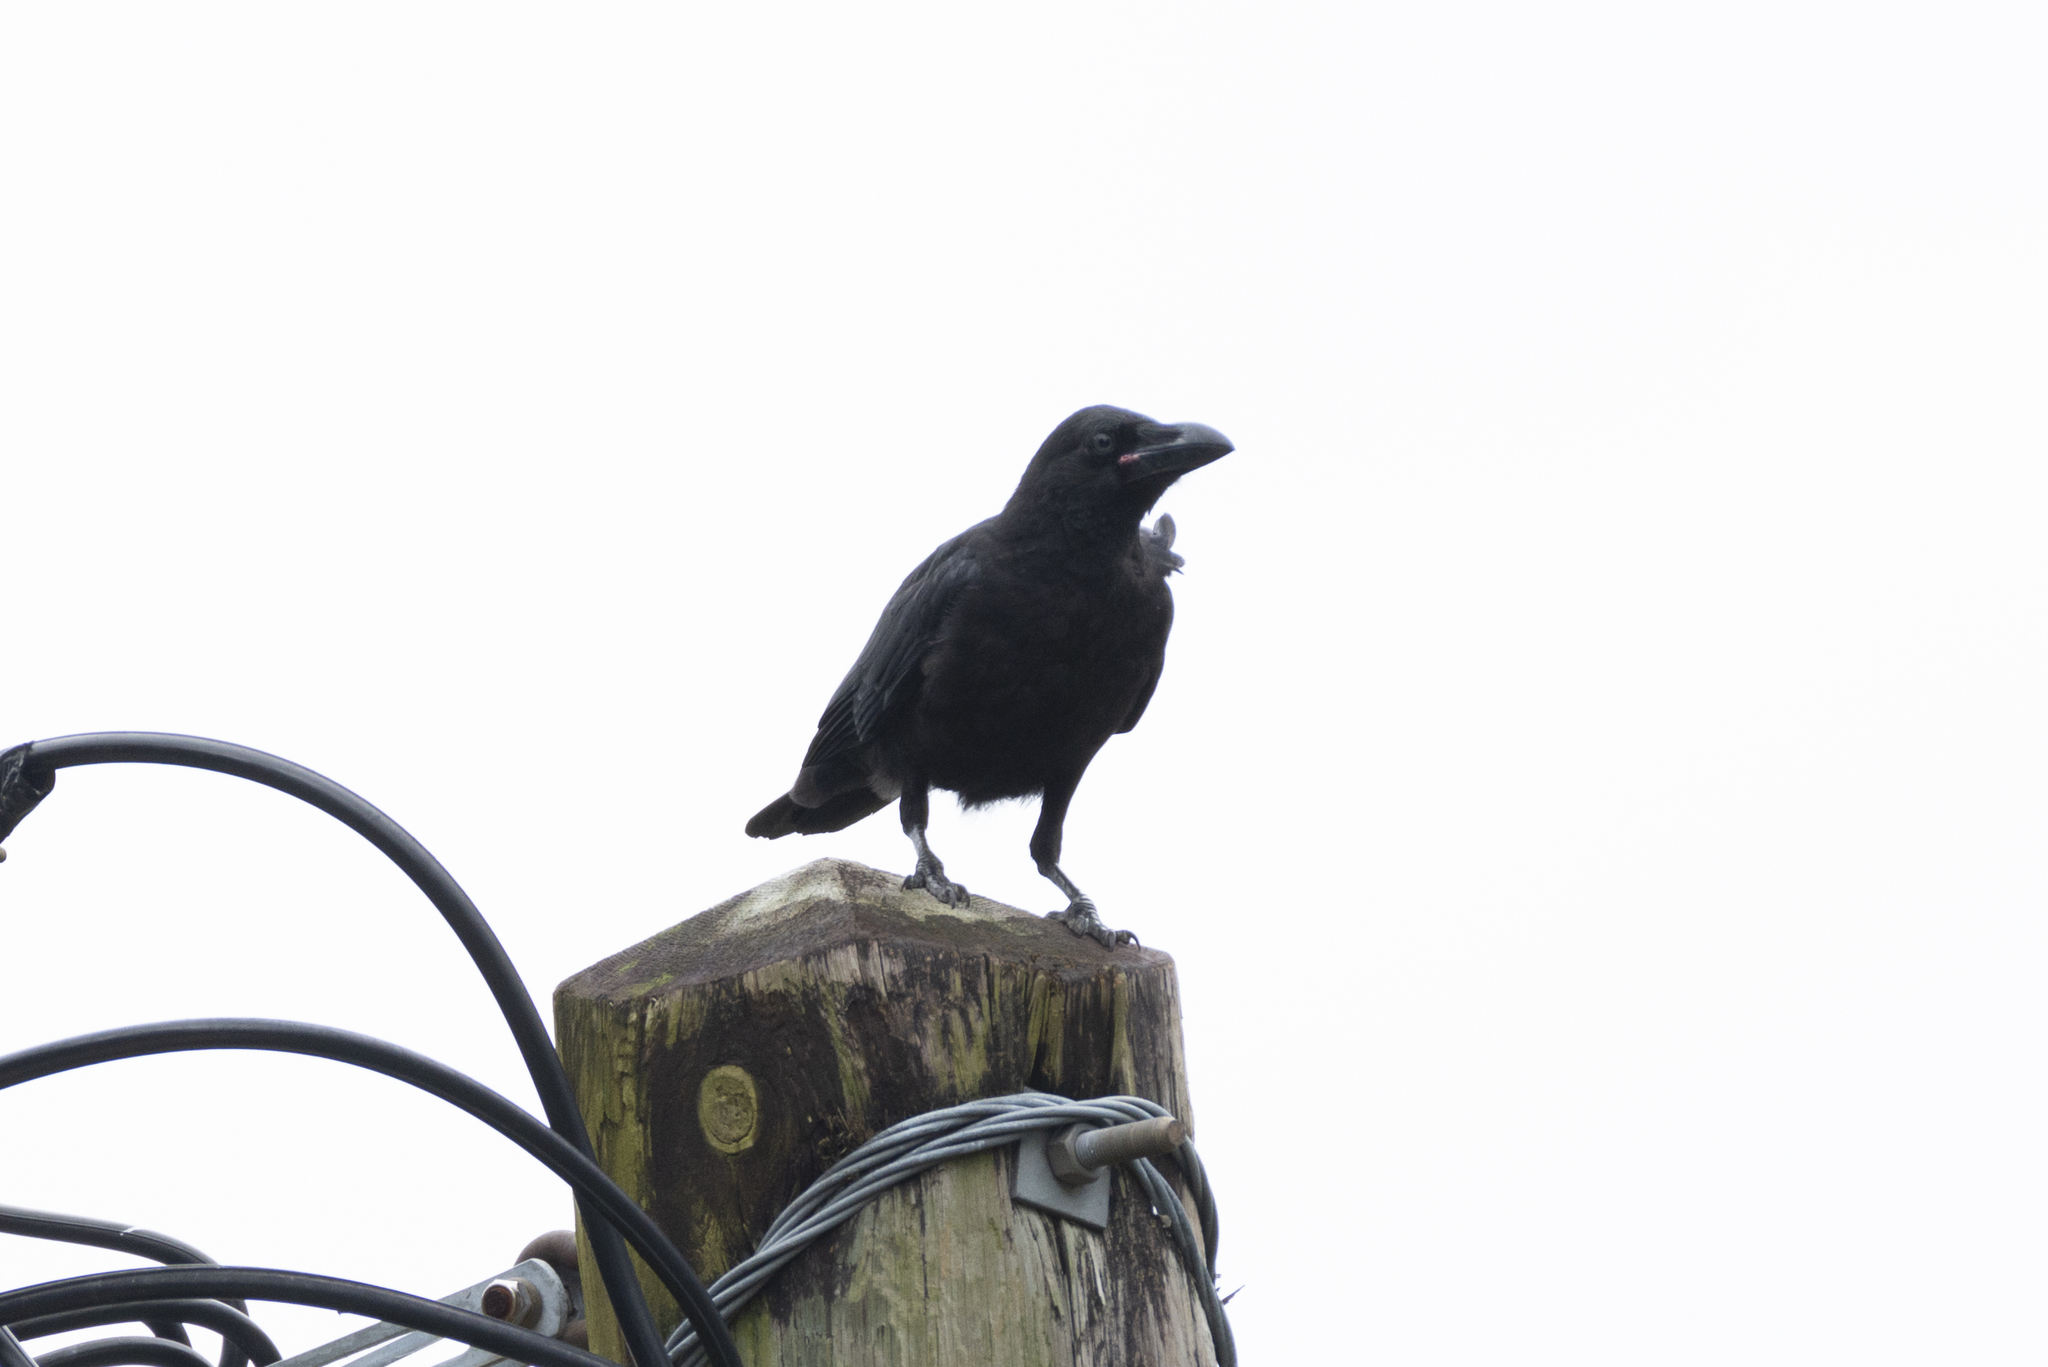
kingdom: Animalia
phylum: Chordata
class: Aves
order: Passeriformes
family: Corvidae
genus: Corvus
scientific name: Corvus macrorhynchos
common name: Large-billed crow
